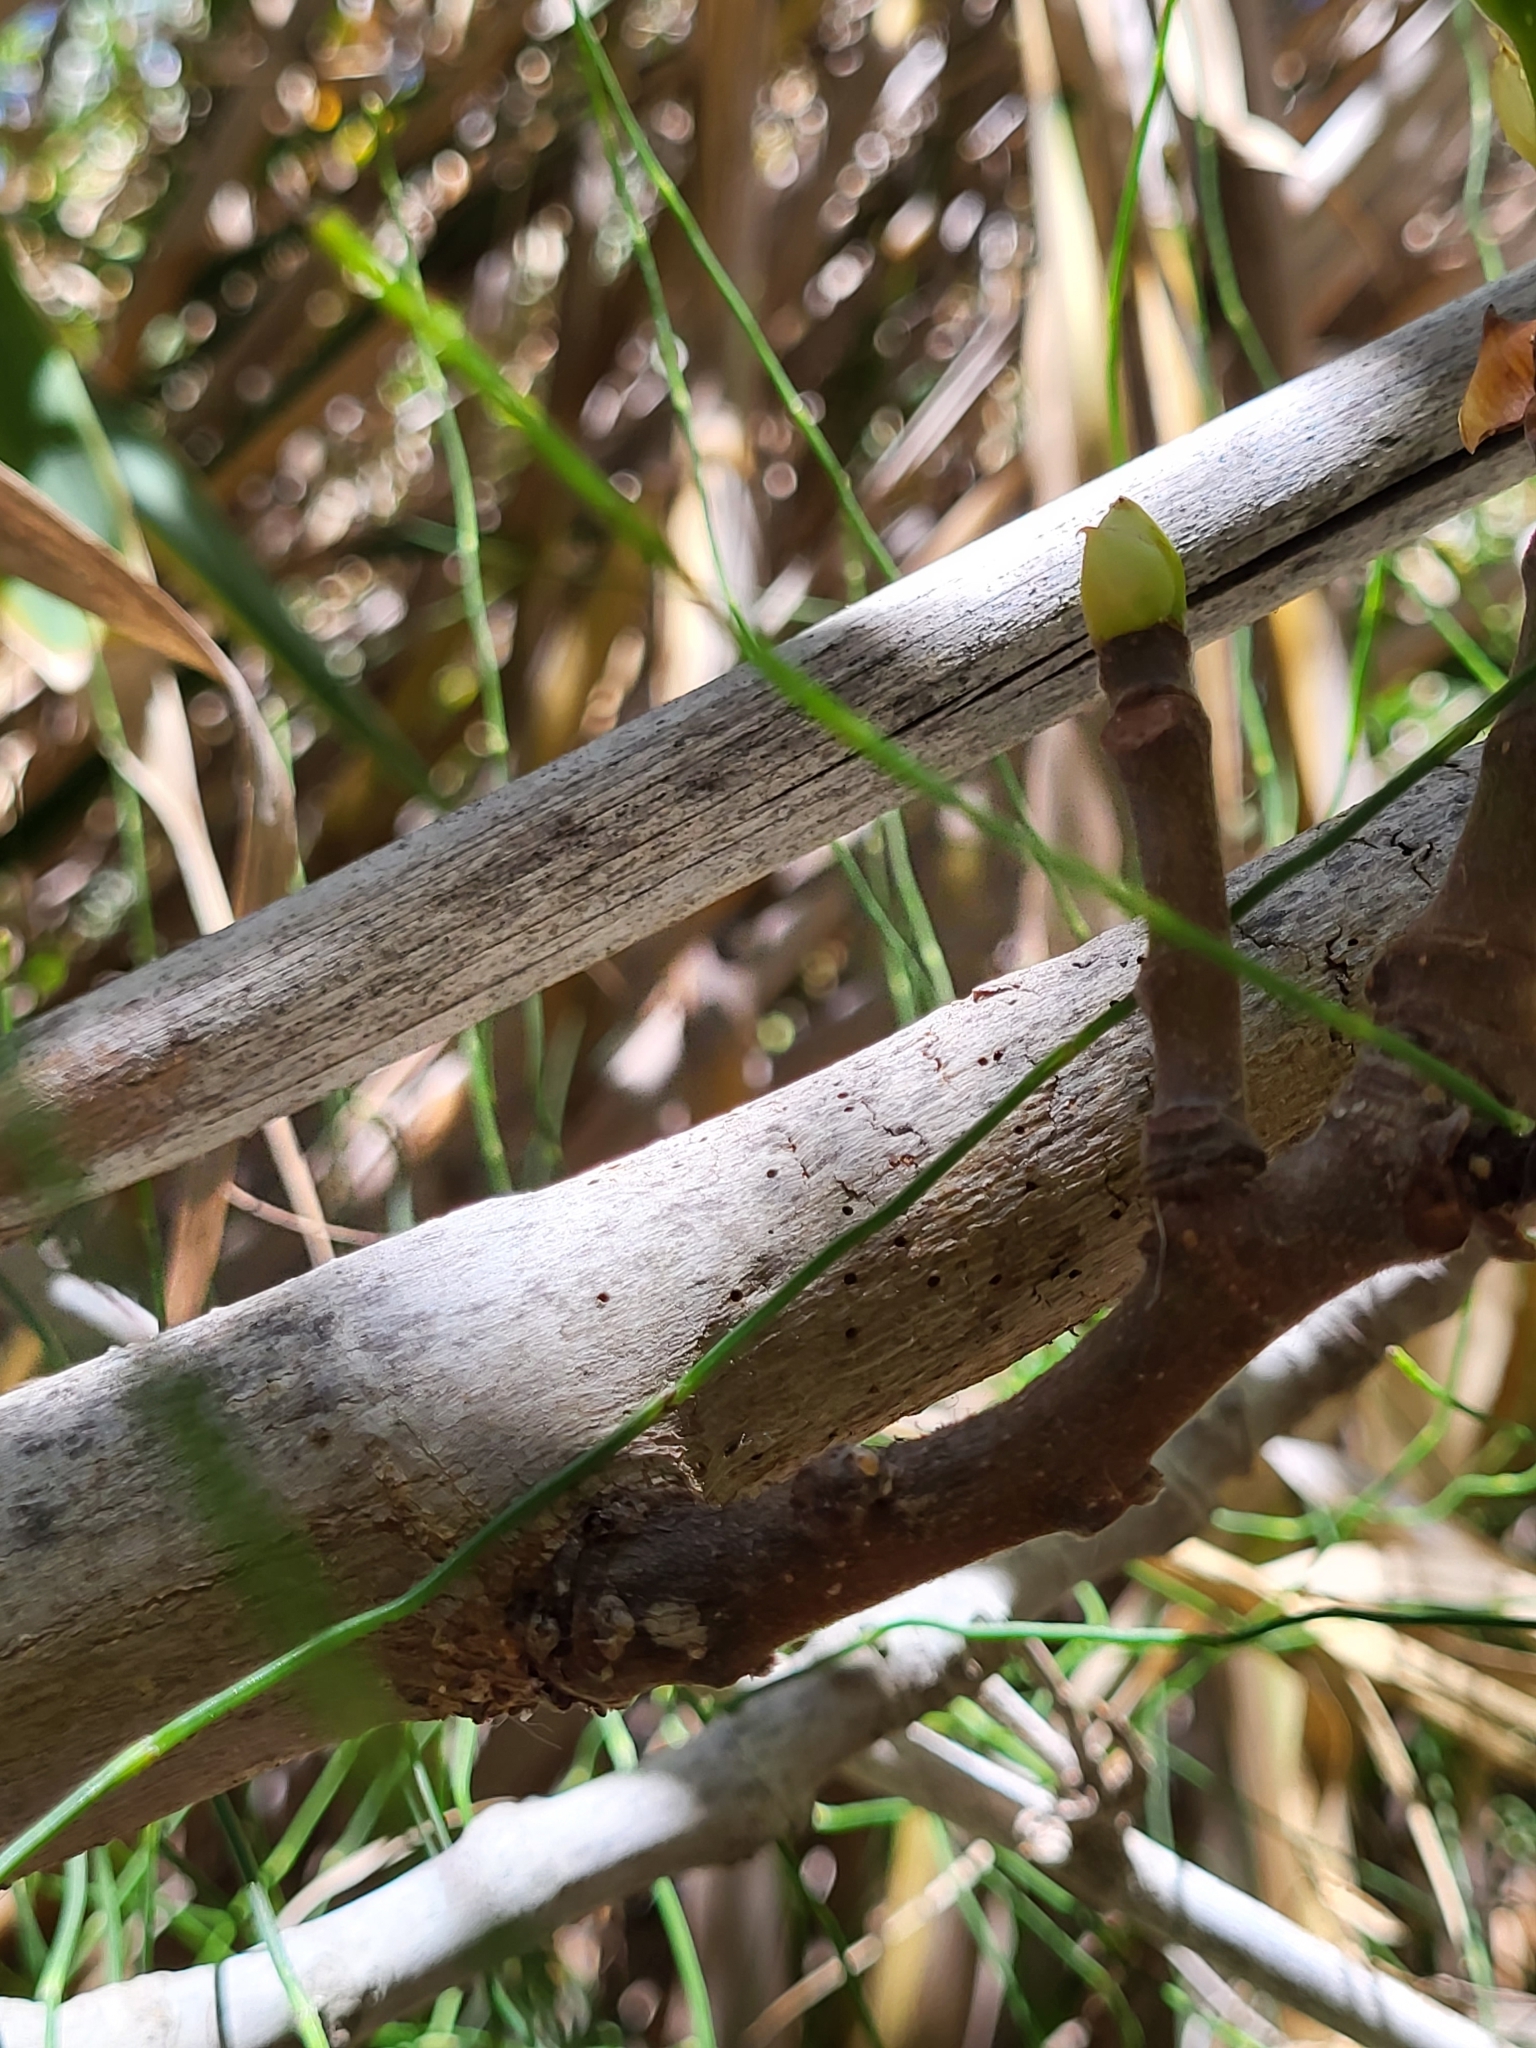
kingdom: Plantae
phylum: Tracheophyta
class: Magnoliopsida
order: Rosales
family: Moraceae
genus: Ficus
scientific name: Ficus carica
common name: Fig
